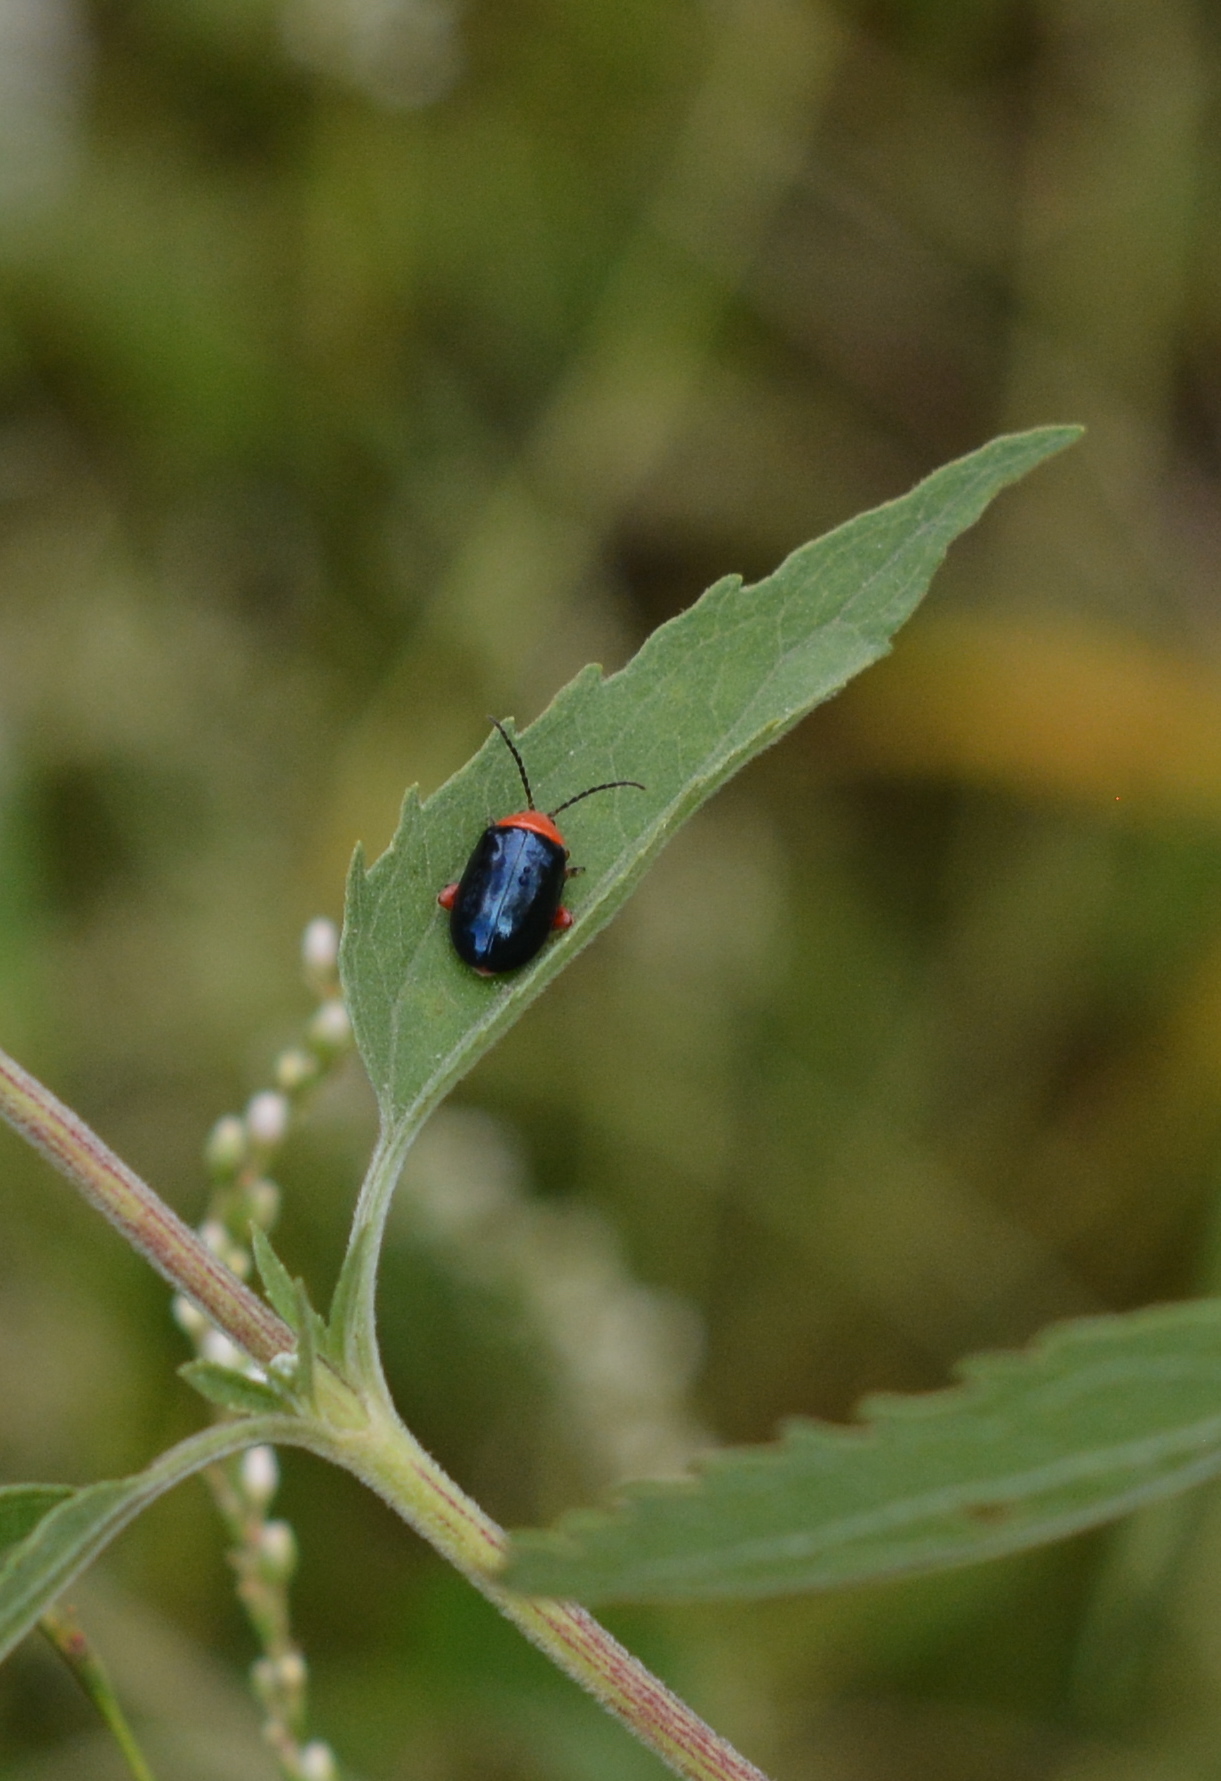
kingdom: Animalia
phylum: Arthropoda
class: Insecta
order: Coleoptera
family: Chrysomelidae
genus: Asphaera
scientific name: Asphaera lustrans
